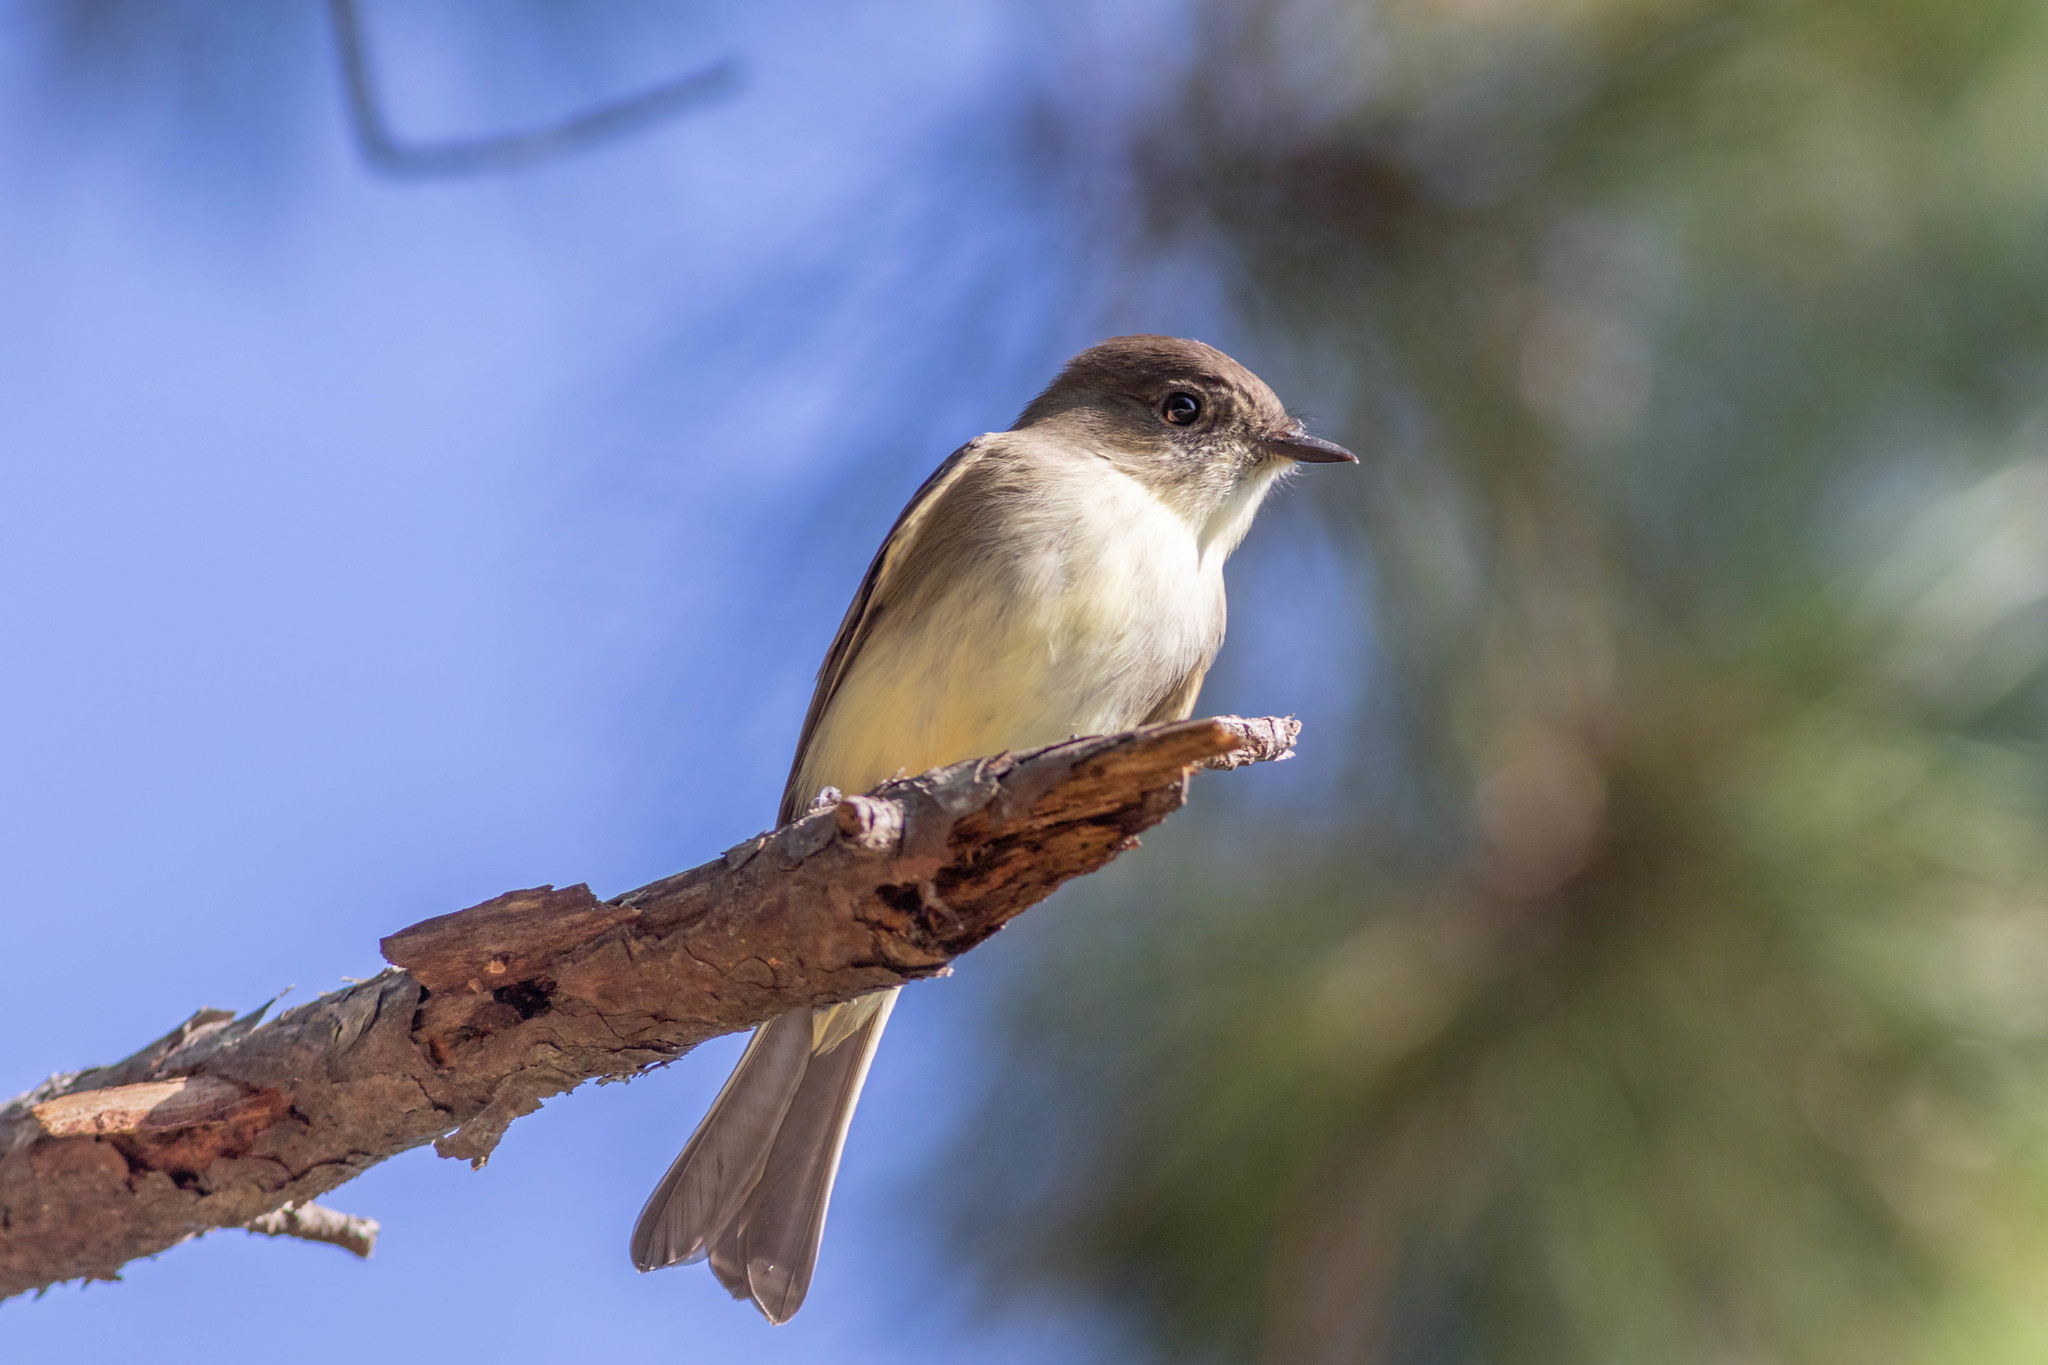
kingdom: Animalia
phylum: Chordata
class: Aves
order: Passeriformes
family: Tyrannidae
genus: Sayornis
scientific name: Sayornis phoebe
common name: Eastern phoebe
